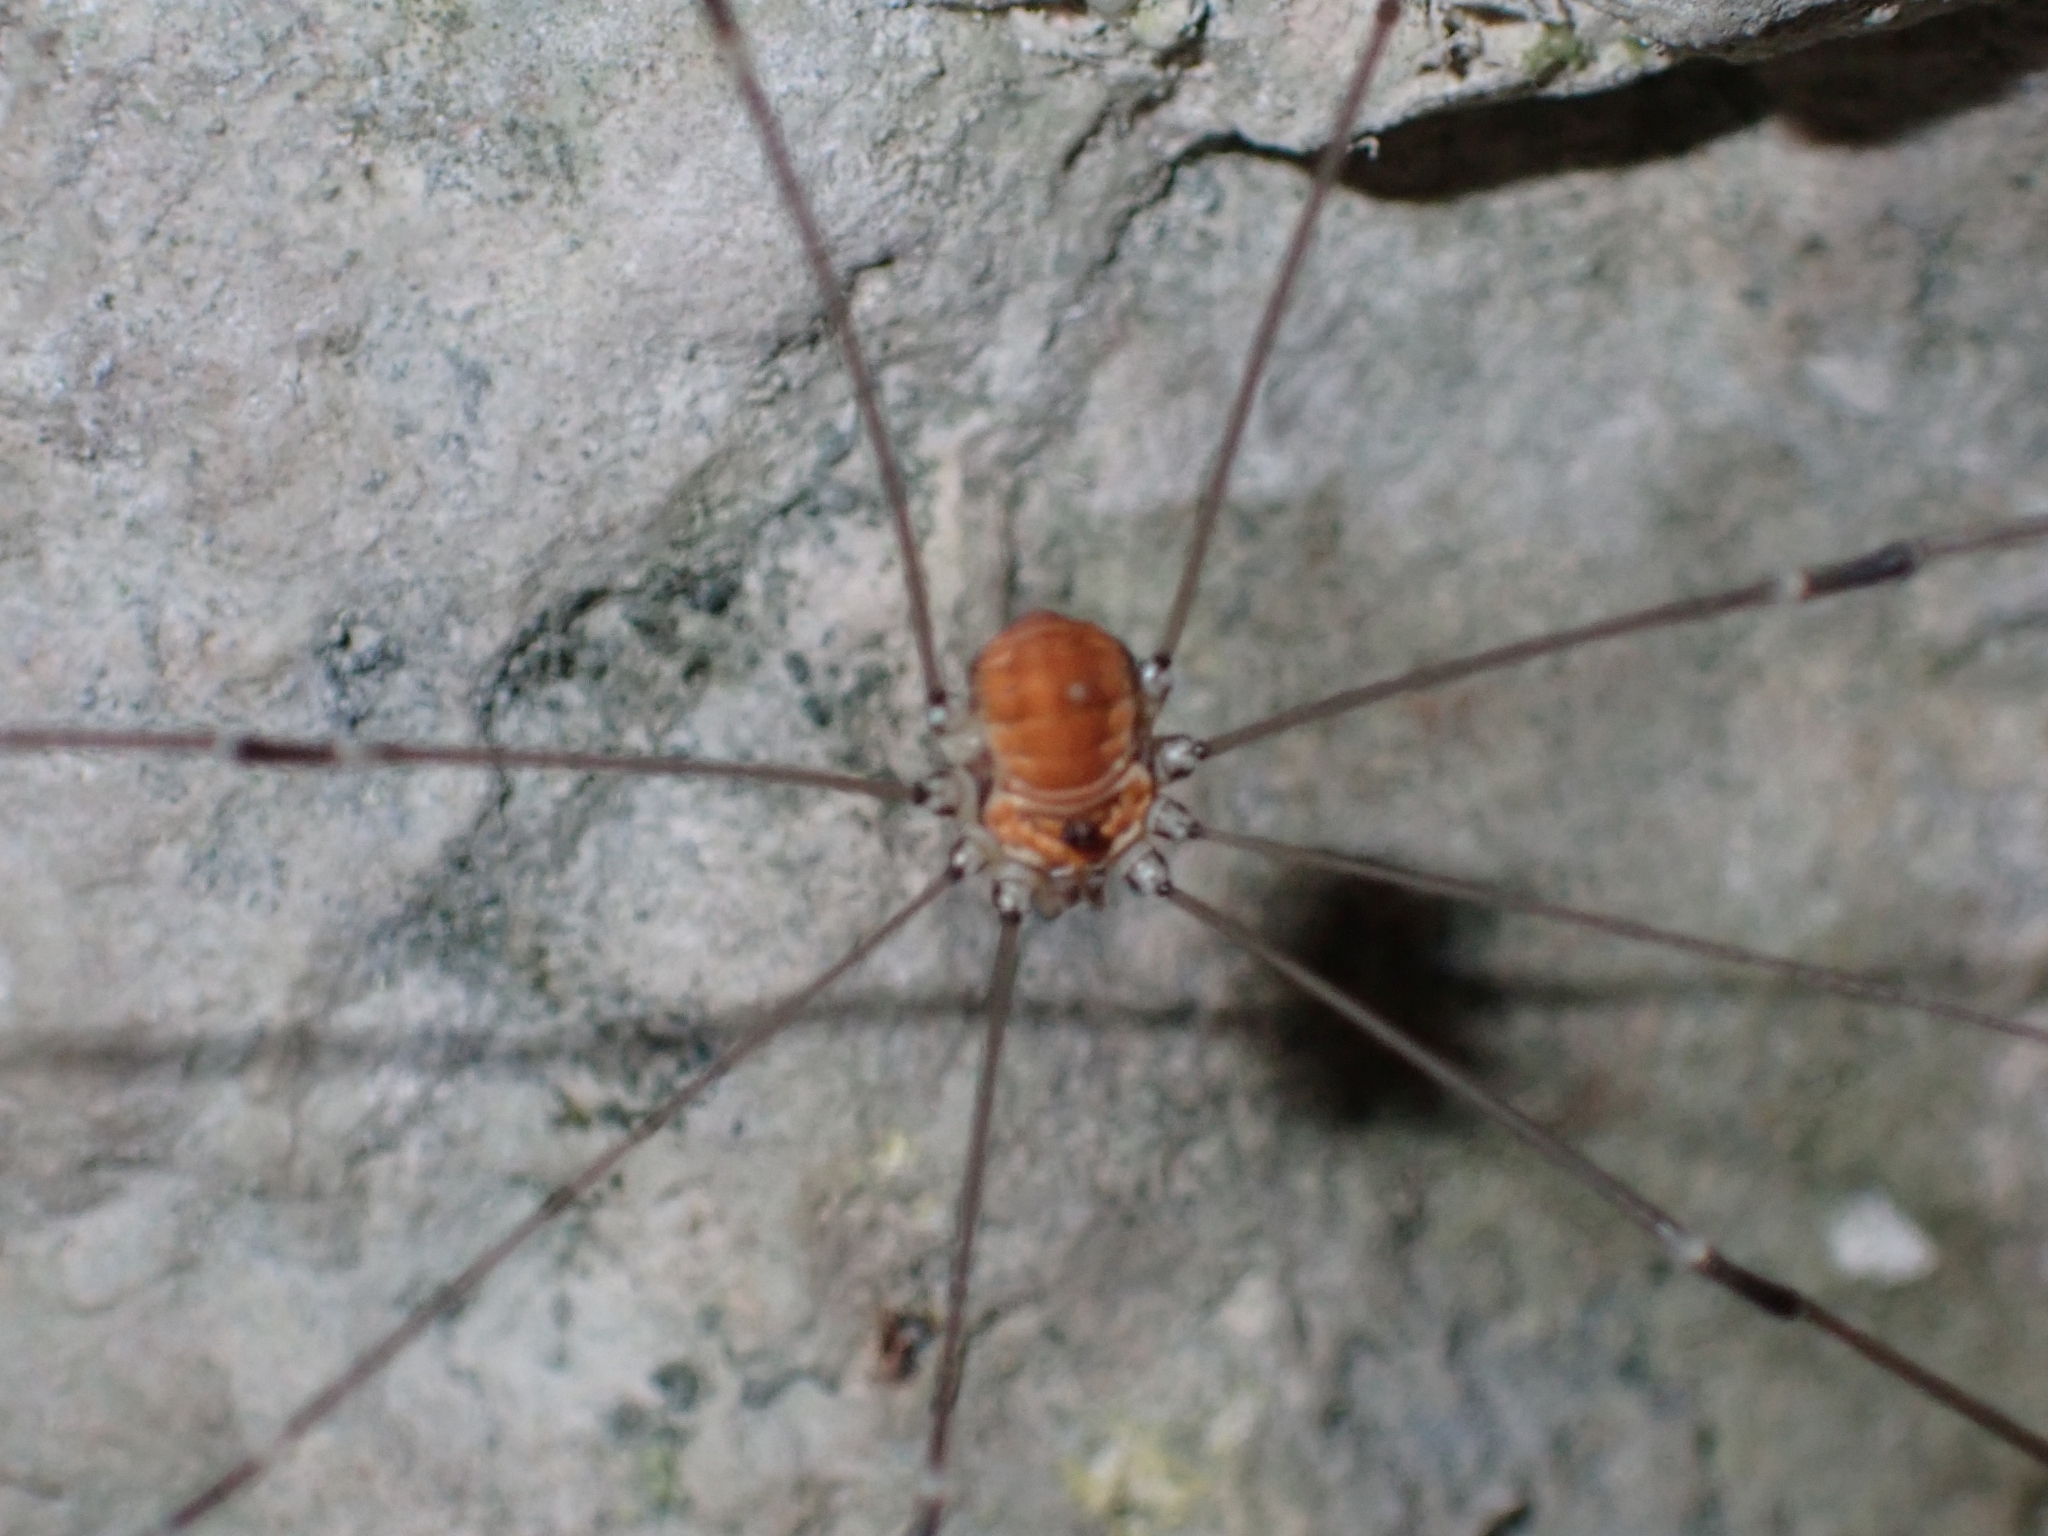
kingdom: Animalia
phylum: Arthropoda
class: Arachnida
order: Opiliones
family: Sclerosomatidae
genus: Leiobunum
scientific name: Leiobunum limbatum
